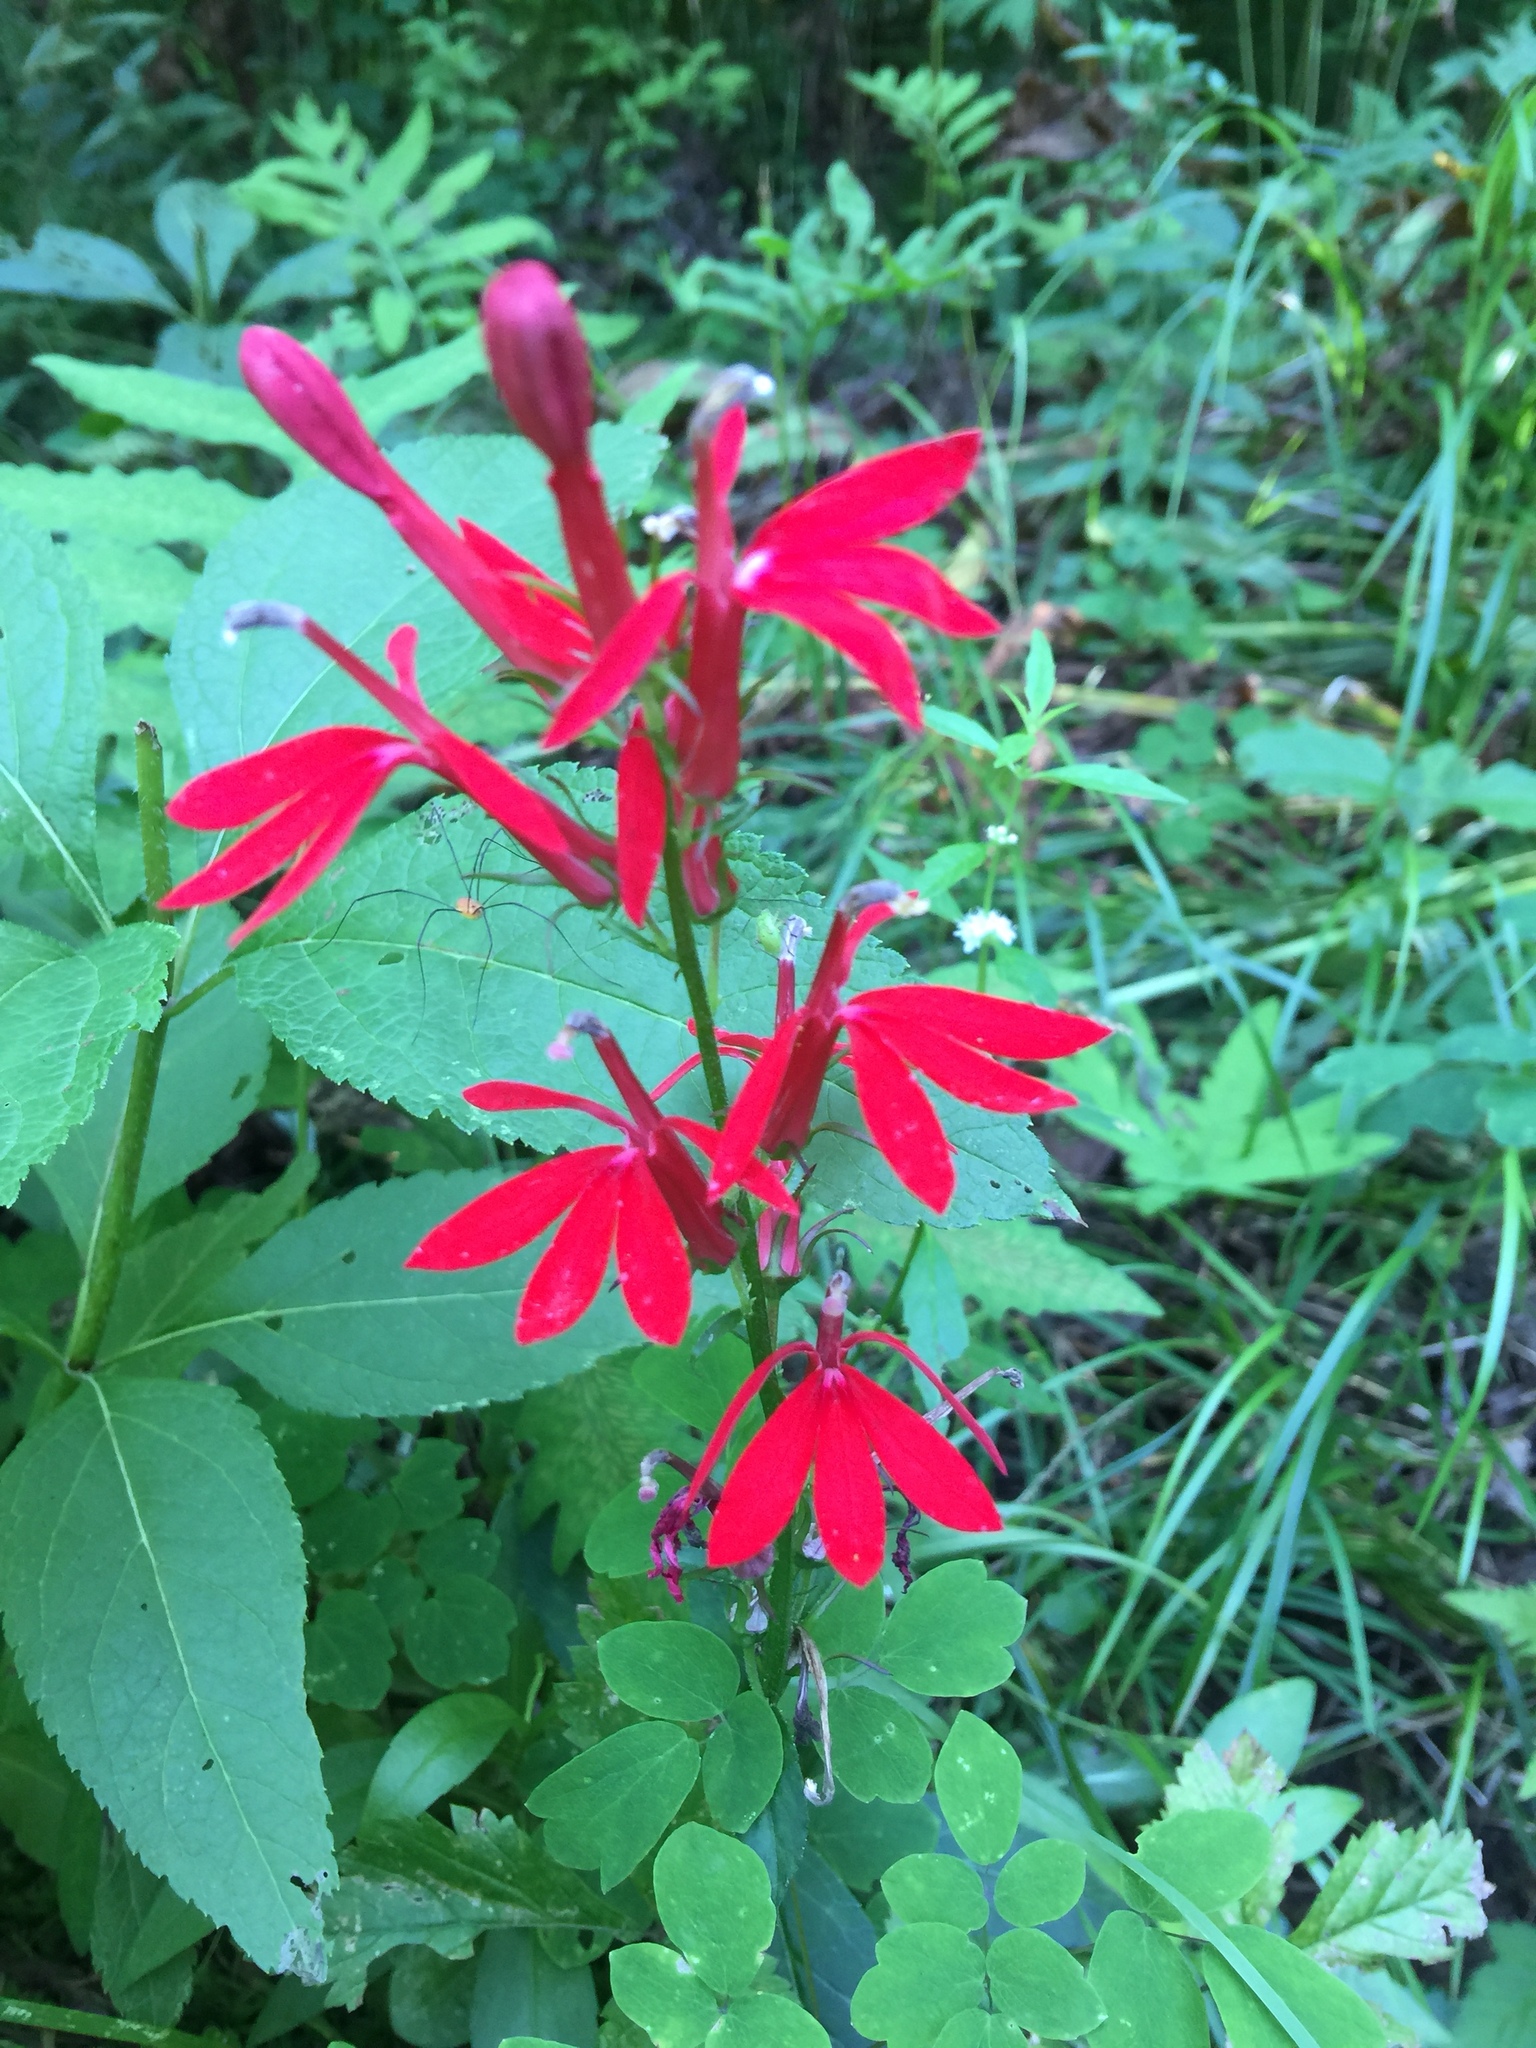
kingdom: Plantae
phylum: Tracheophyta
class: Magnoliopsida
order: Asterales
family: Campanulaceae
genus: Lobelia
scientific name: Lobelia cardinalis
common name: Cardinal flower
